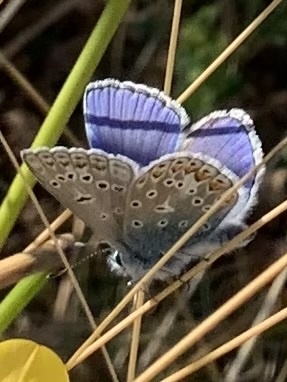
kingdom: Animalia
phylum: Arthropoda
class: Insecta
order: Lepidoptera
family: Lycaenidae
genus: Polyommatus
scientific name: Polyommatus icarus
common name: Common blue
